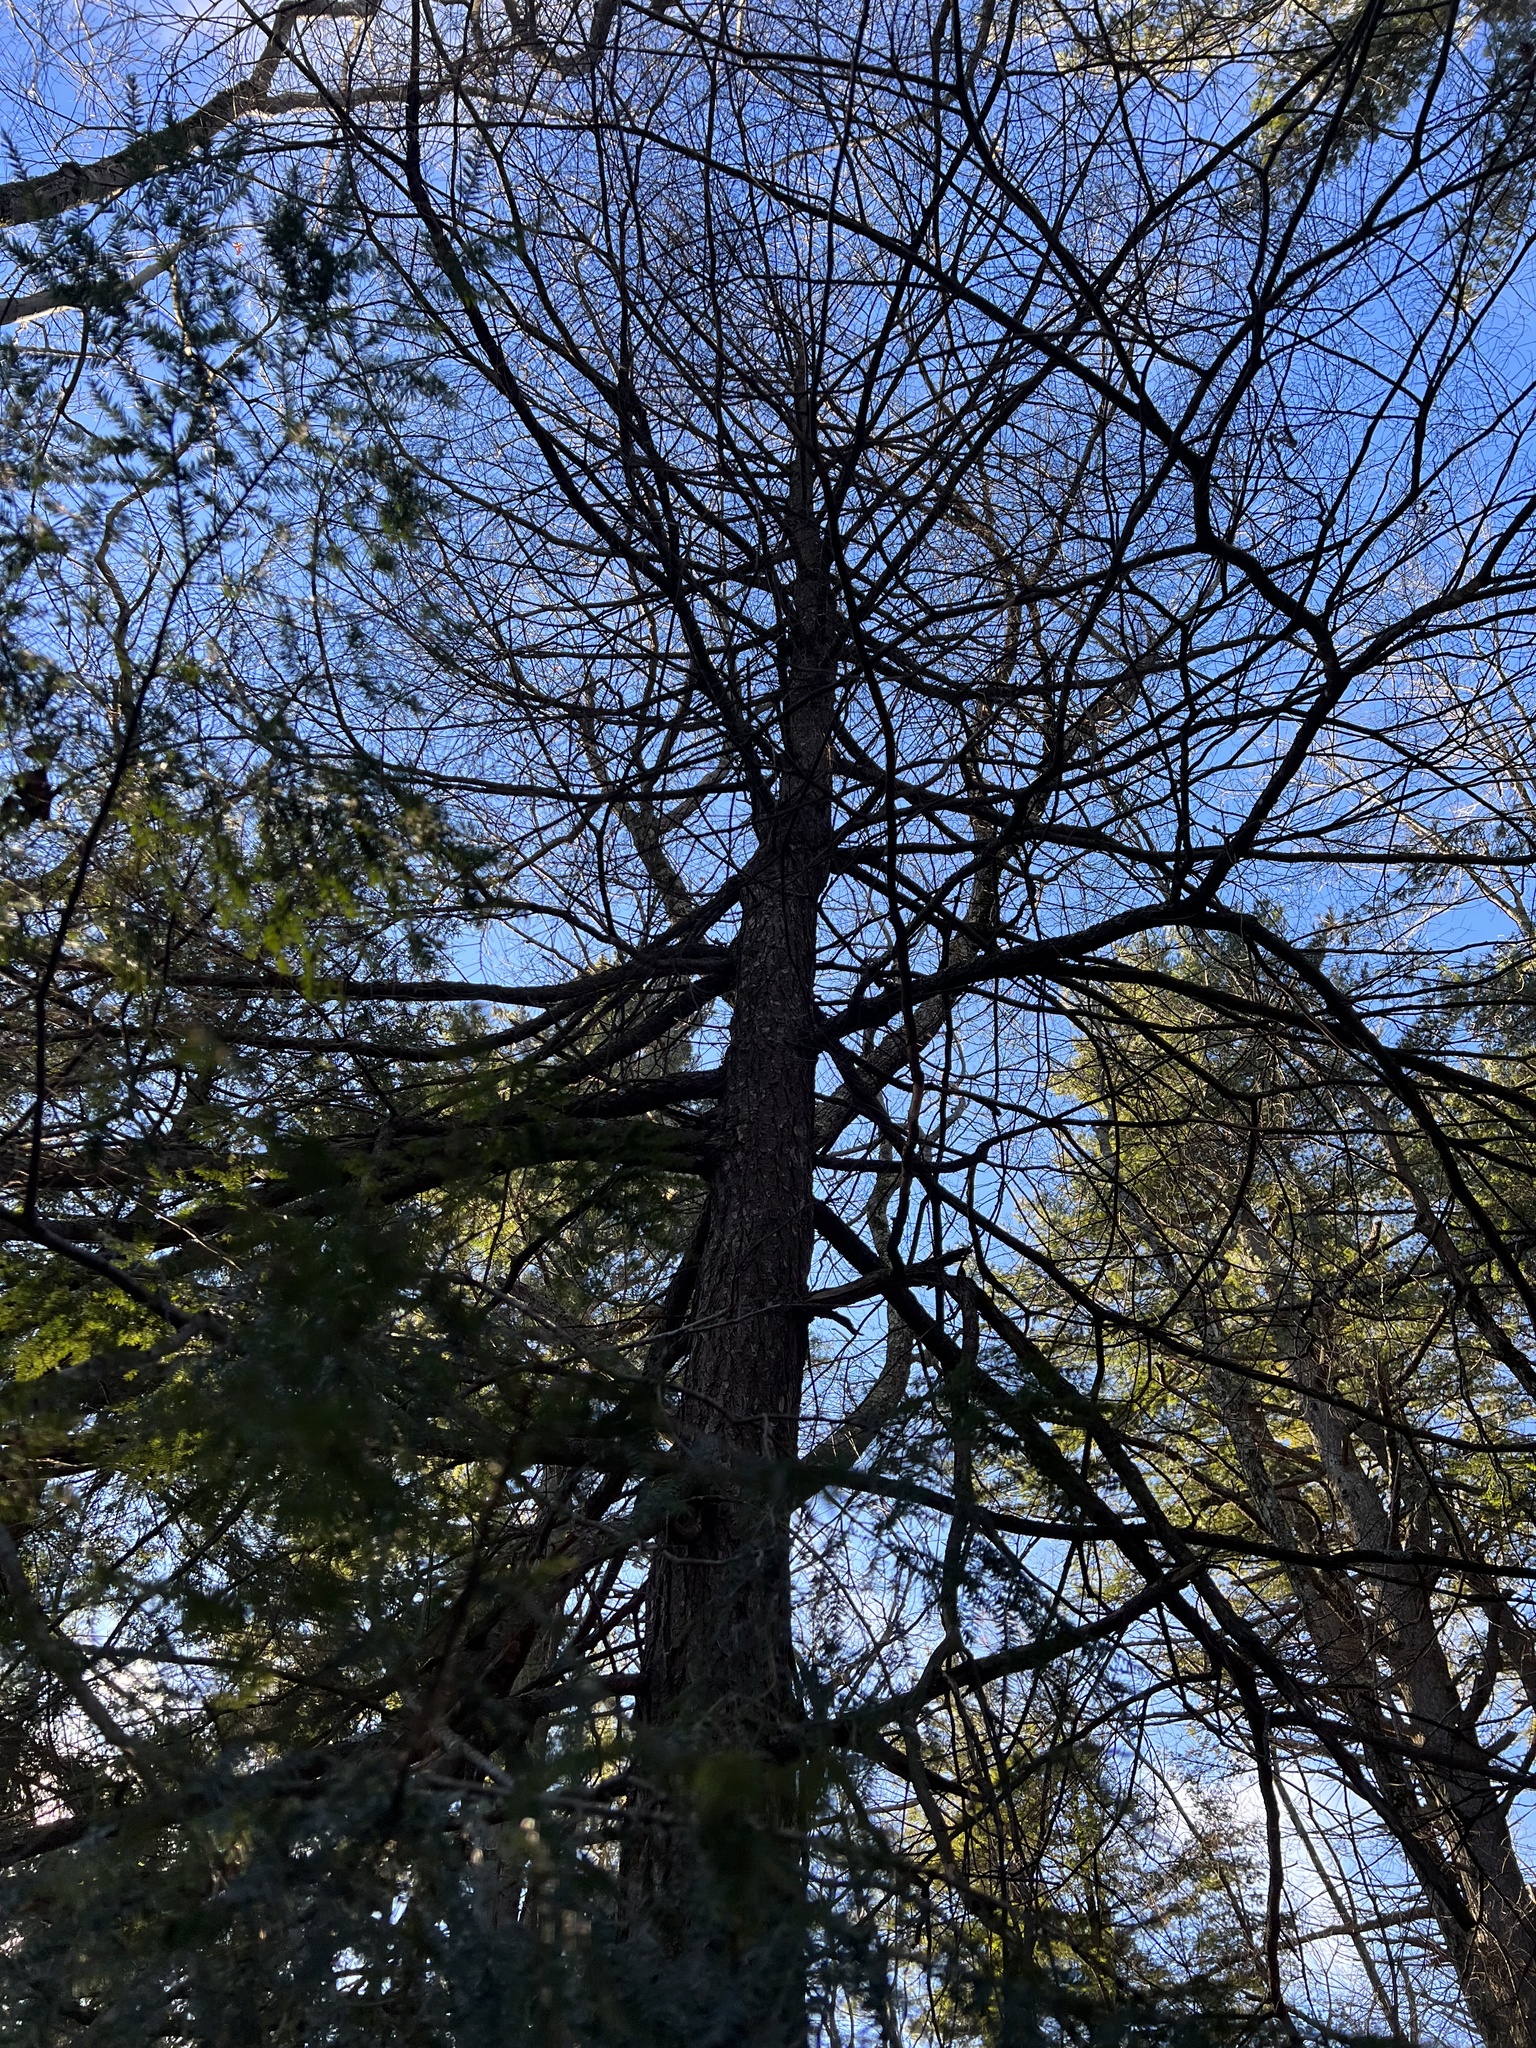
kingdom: Plantae
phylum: Tracheophyta
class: Pinopsida
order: Pinales
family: Pinaceae
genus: Tsuga
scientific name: Tsuga canadensis
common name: Eastern hemlock
